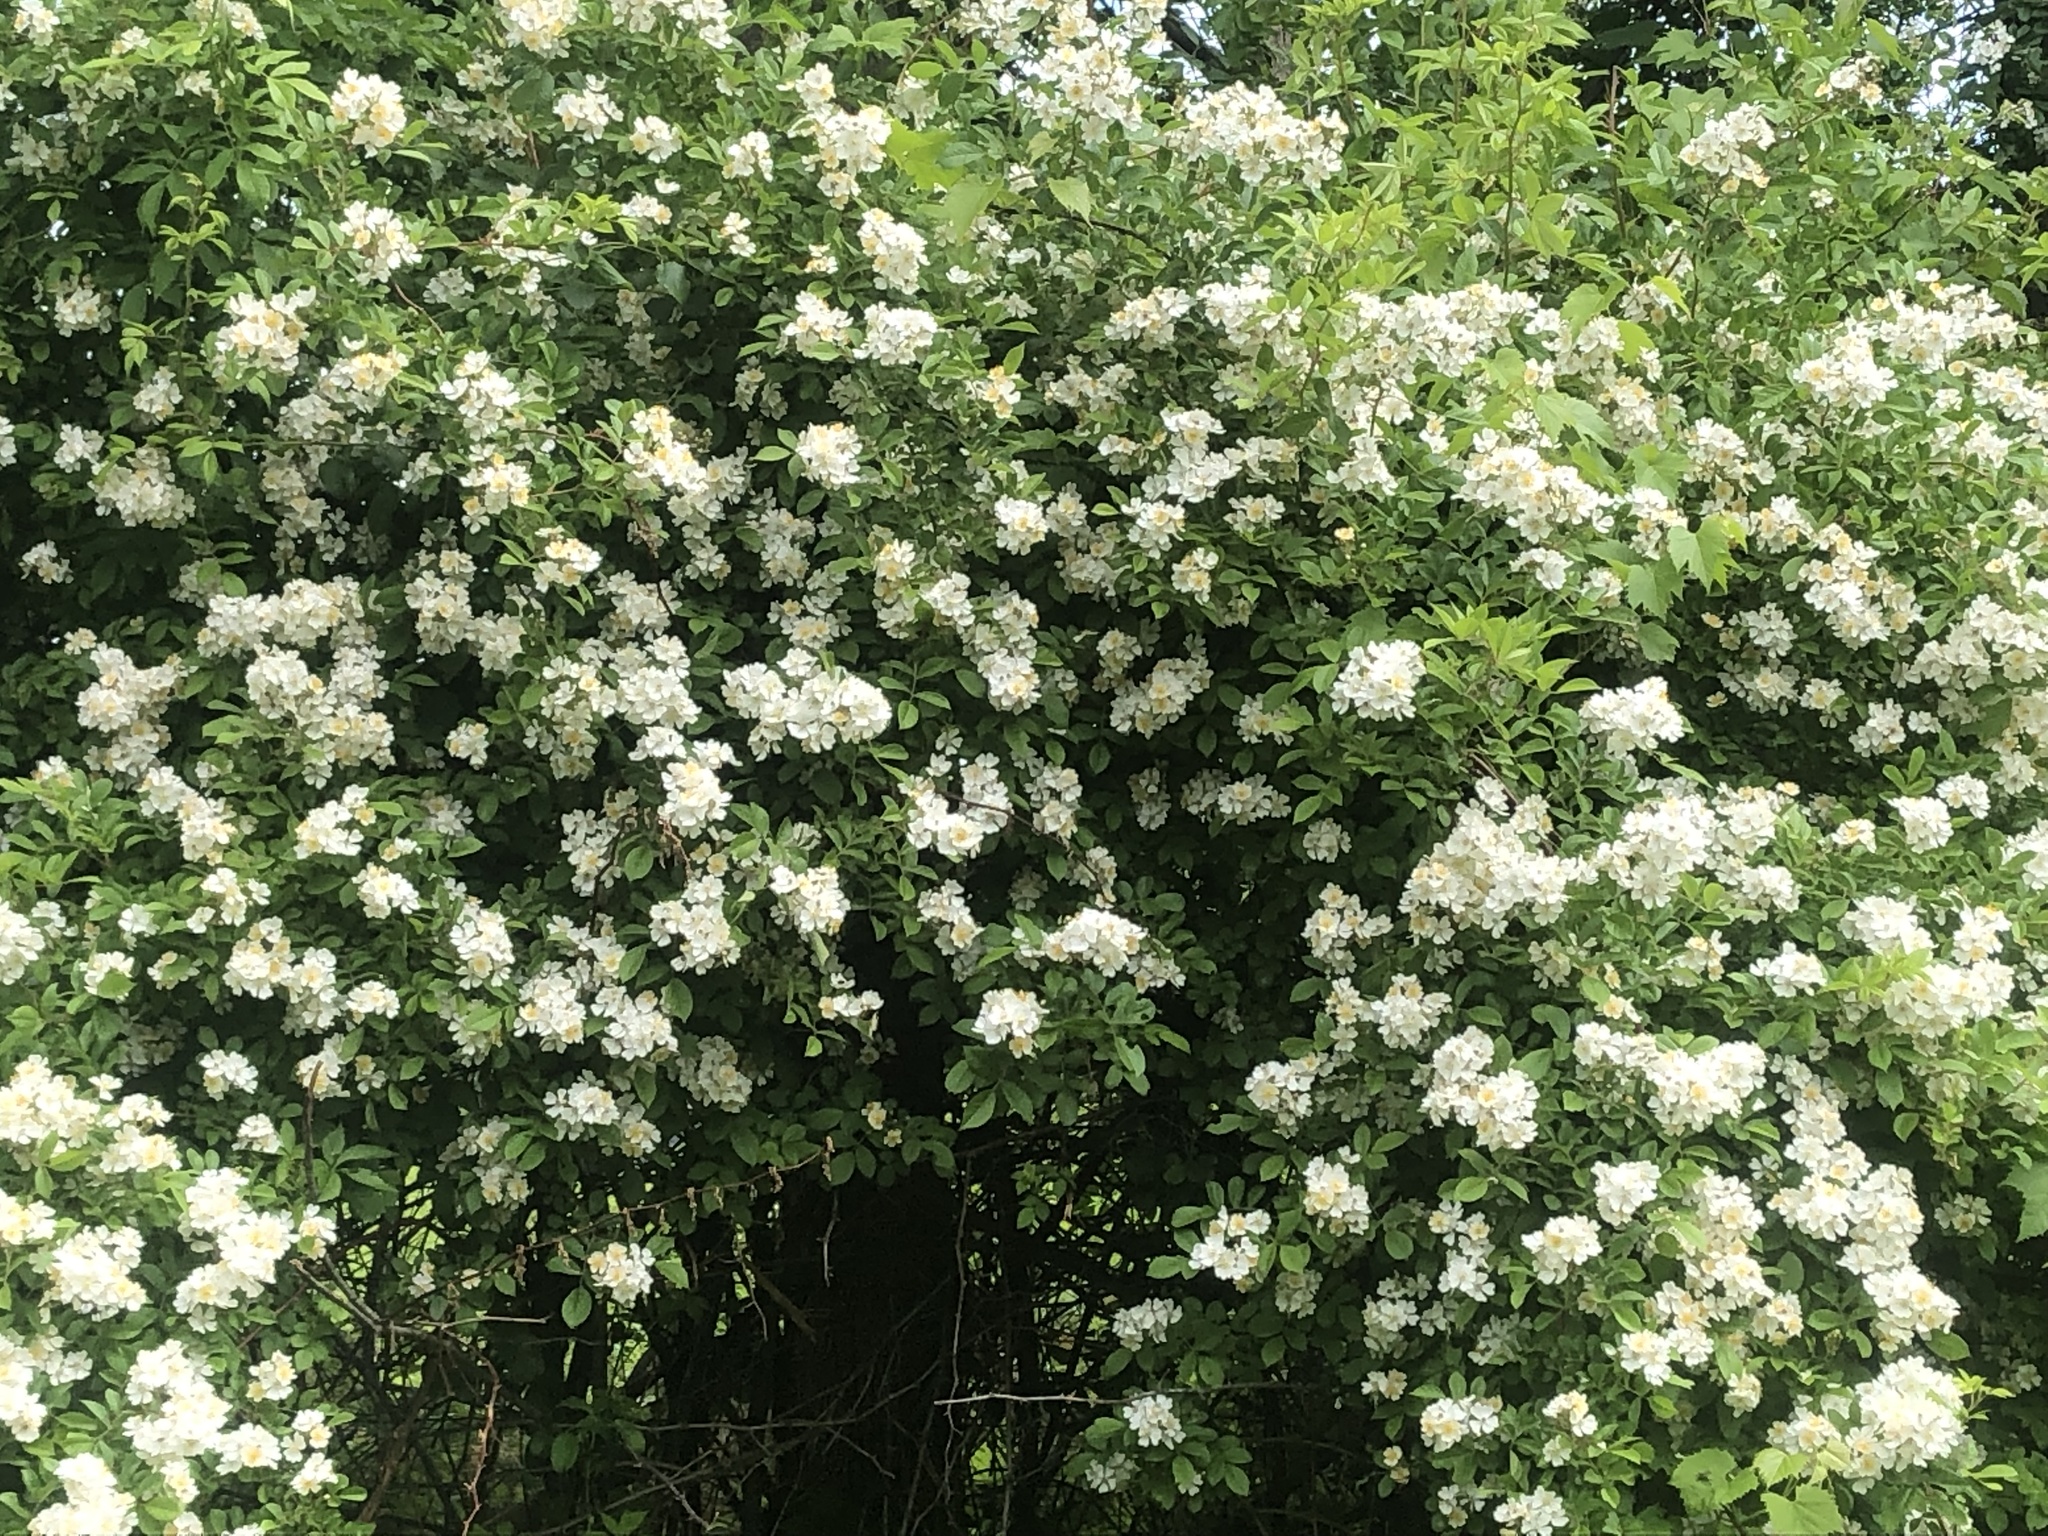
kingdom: Plantae
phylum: Tracheophyta
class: Magnoliopsida
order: Rosales
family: Rosaceae
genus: Rosa
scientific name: Rosa multiflora
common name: Multiflora rose
